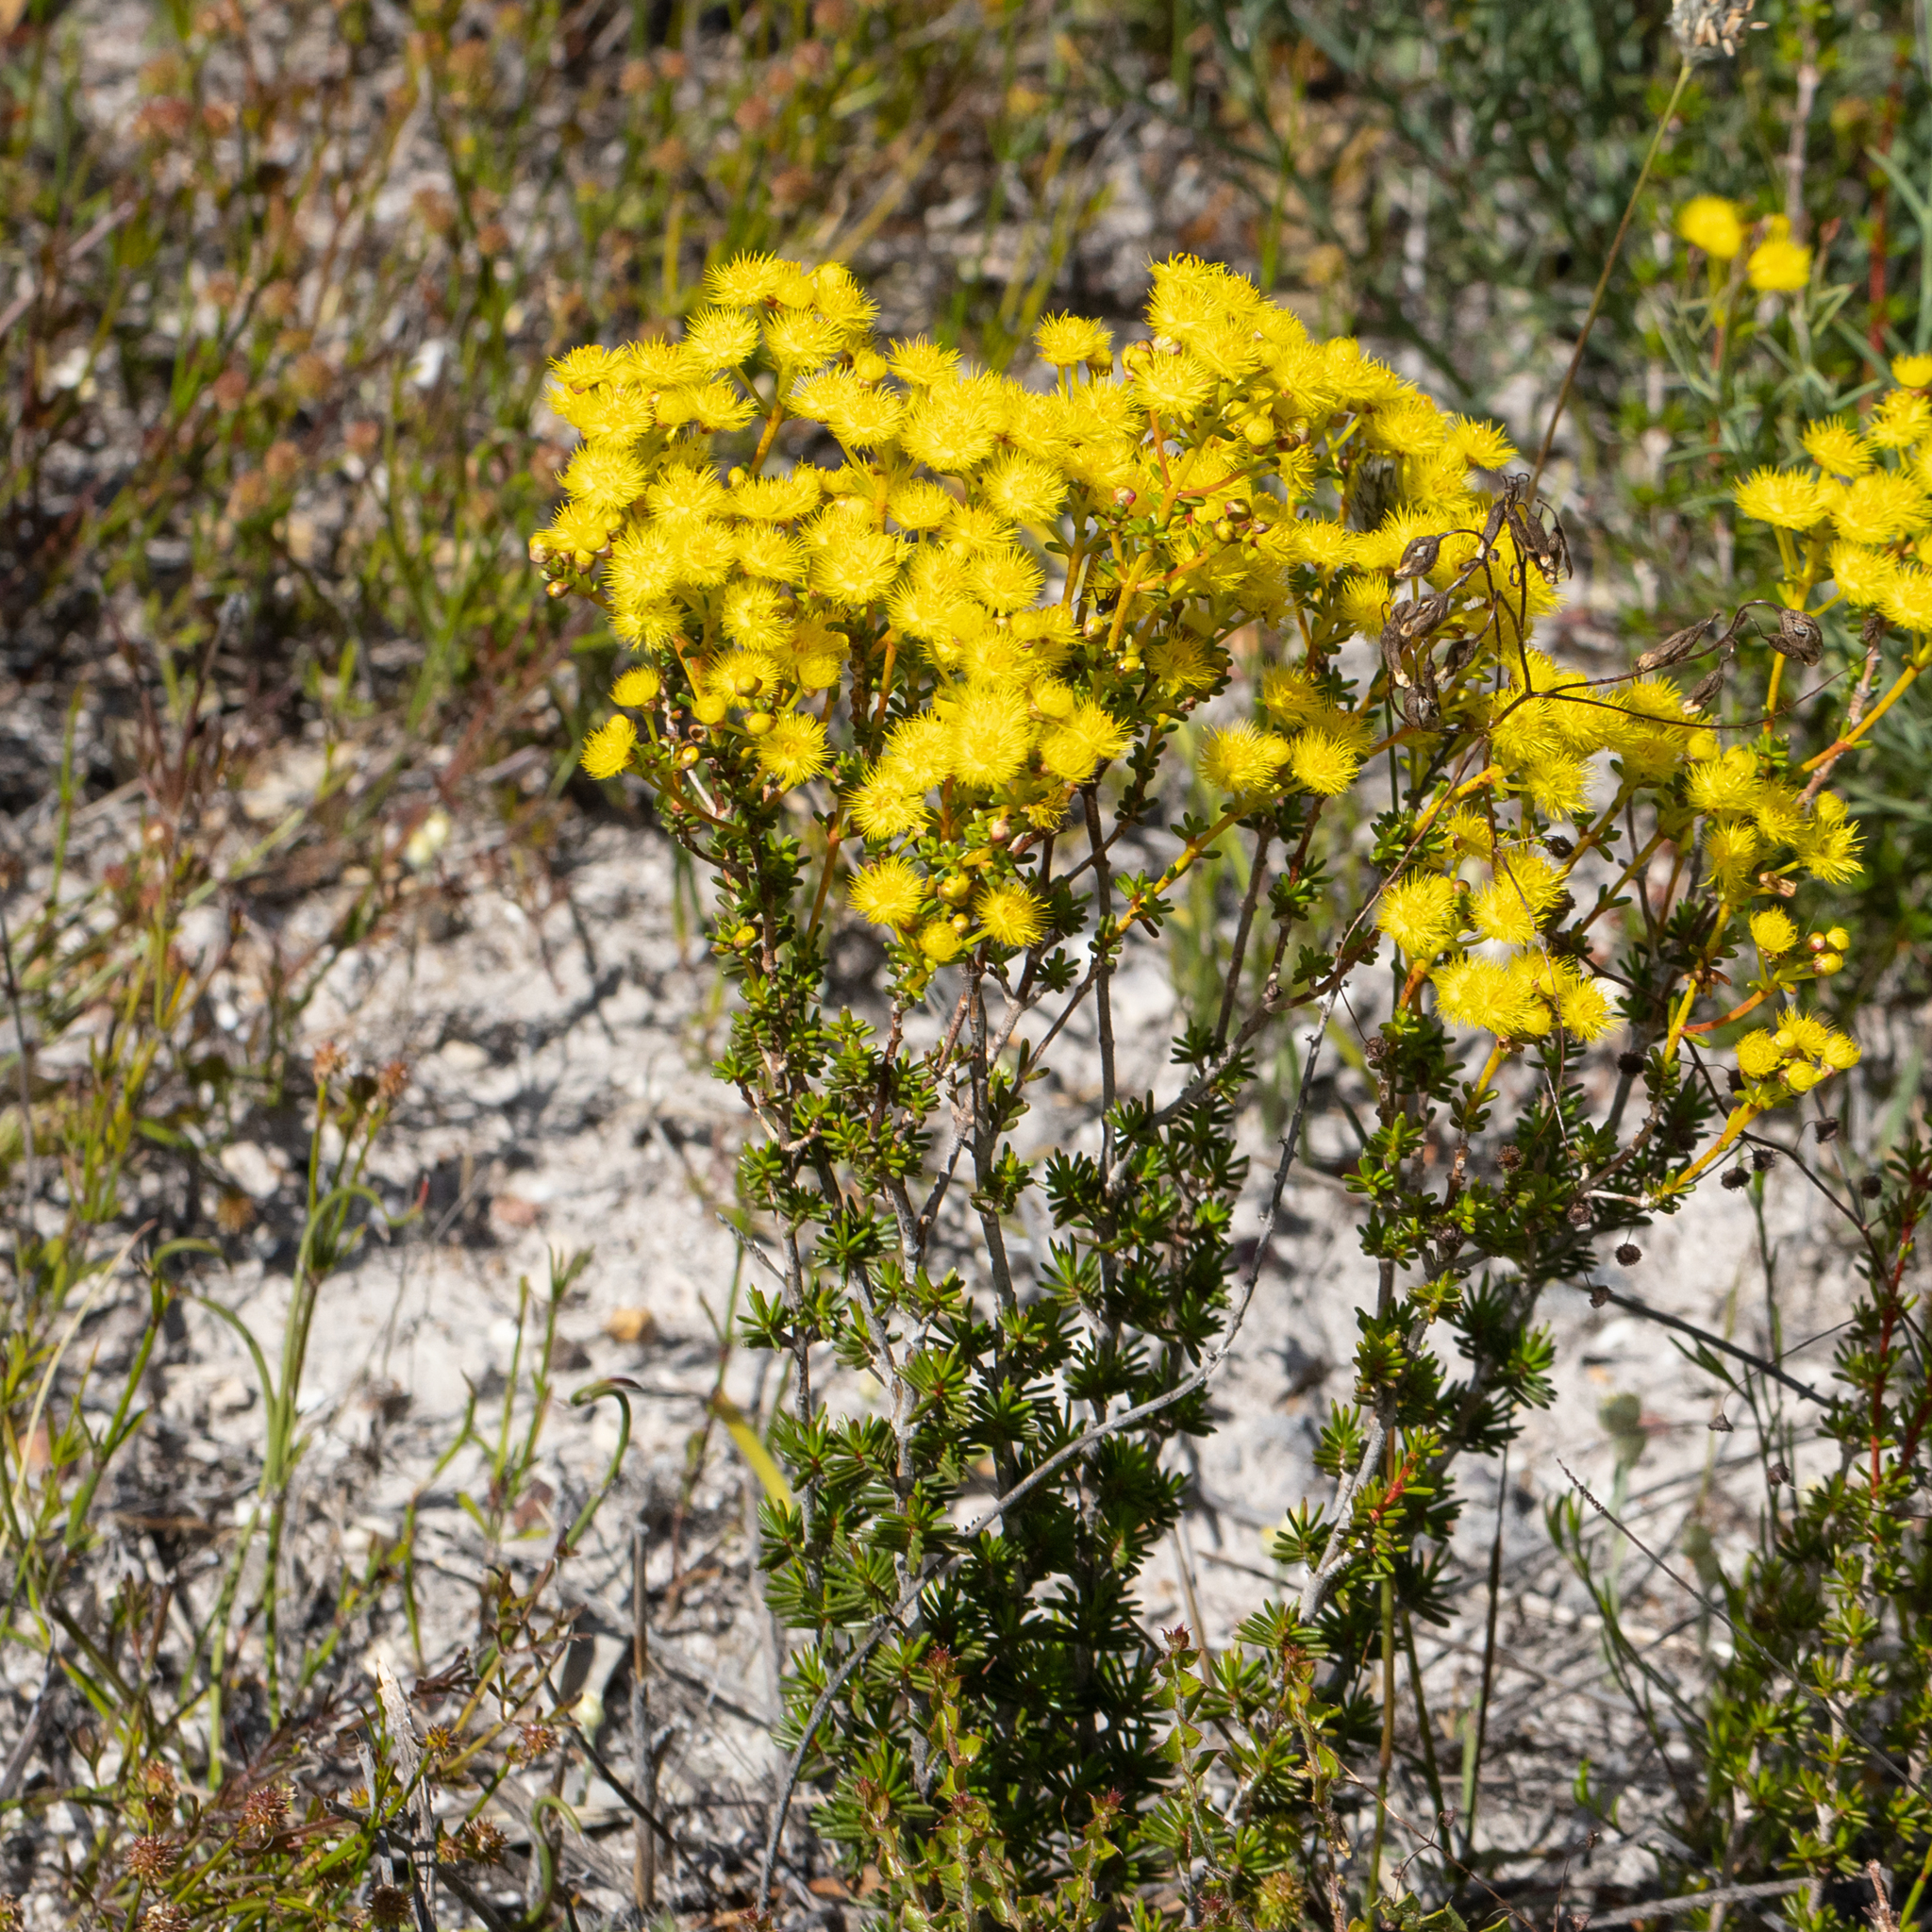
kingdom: Plantae
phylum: Tracheophyta
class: Magnoliopsida
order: Myrtales
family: Myrtaceae
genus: Verticordia
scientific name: Verticordia brevifolia
